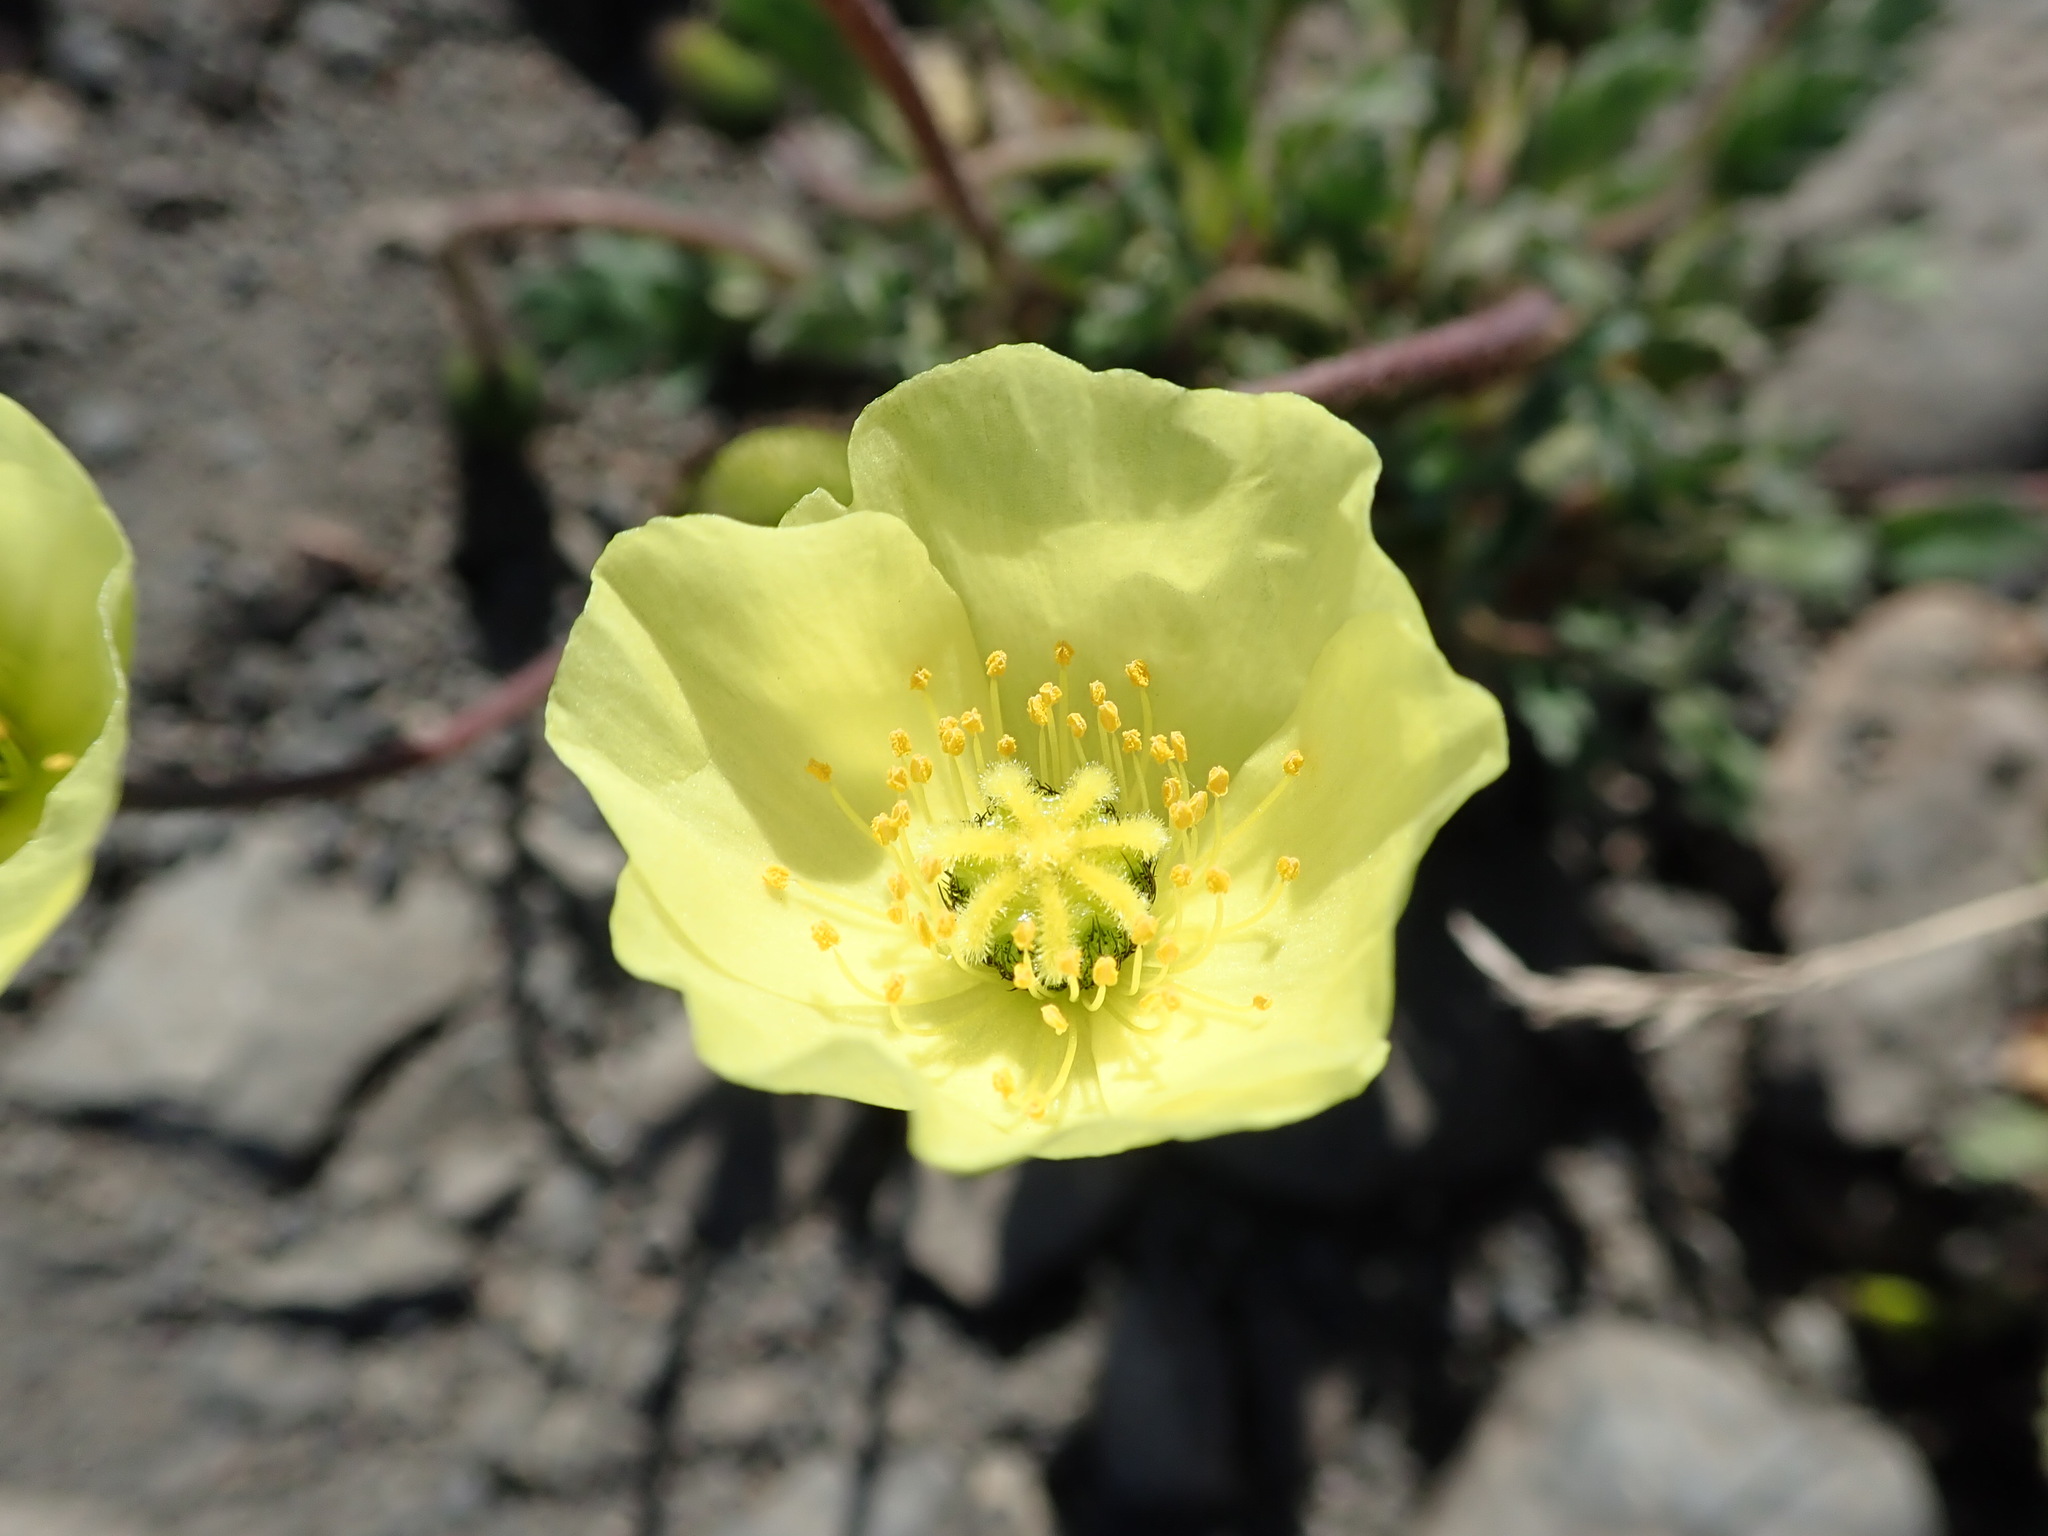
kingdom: Plantae
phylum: Tracheophyta
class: Magnoliopsida
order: Ranunculales
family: Papaveraceae
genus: Papaver
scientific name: Papaver radicatum
